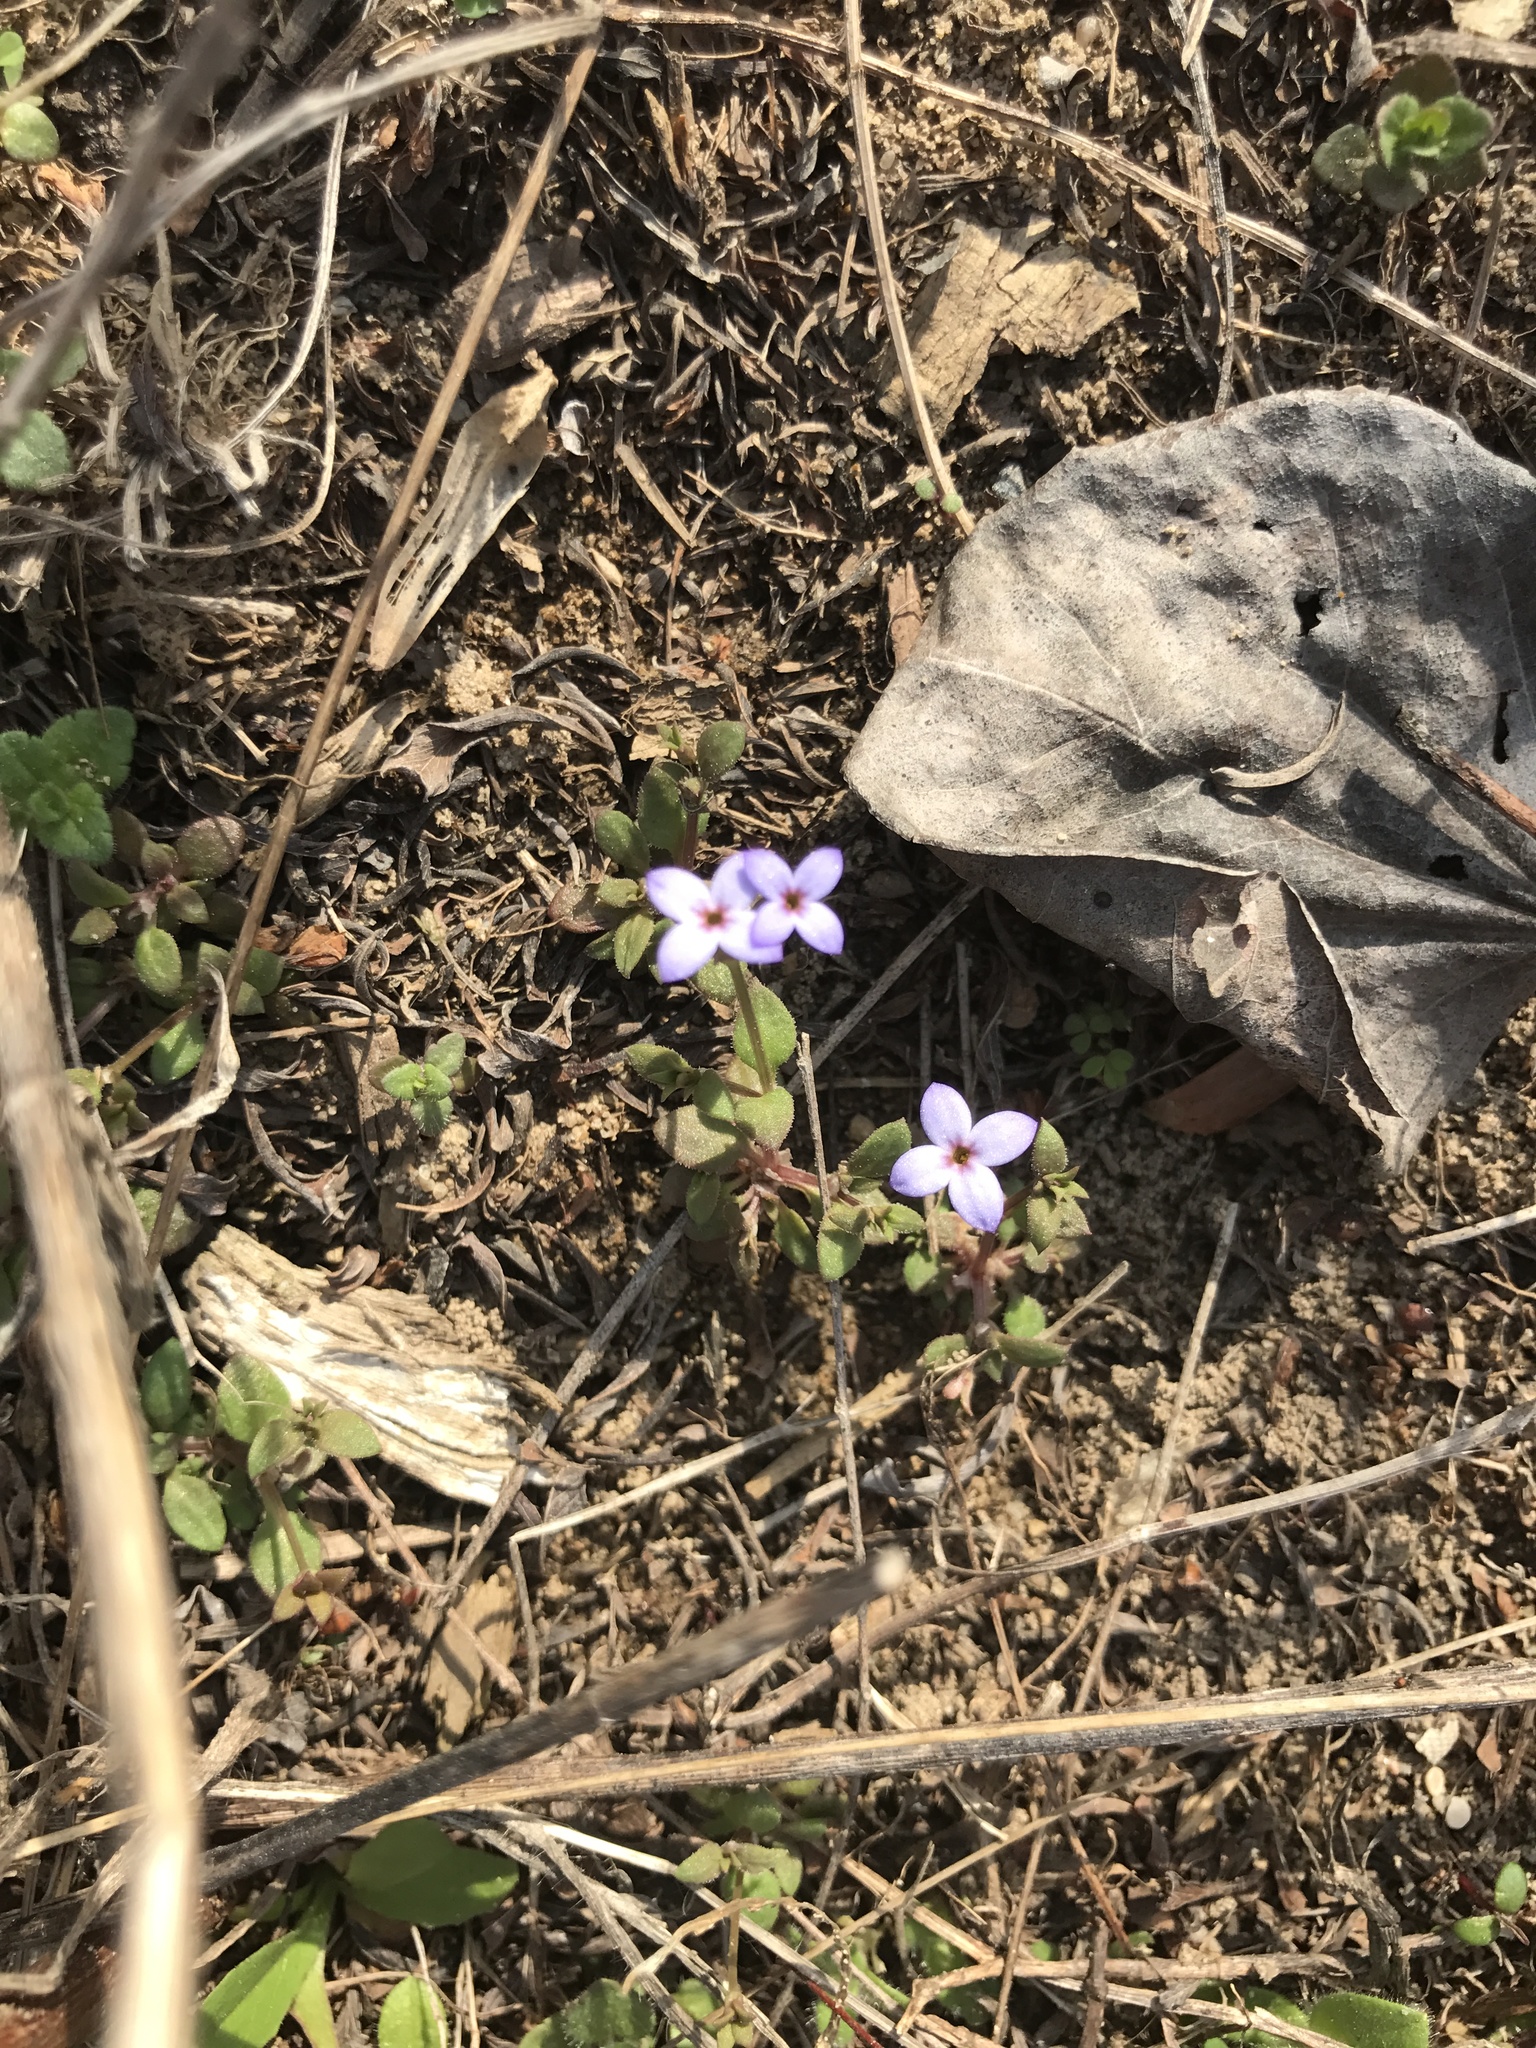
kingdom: Plantae
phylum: Tracheophyta
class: Magnoliopsida
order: Gentianales
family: Rubiaceae
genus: Houstonia
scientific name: Houstonia pusilla
